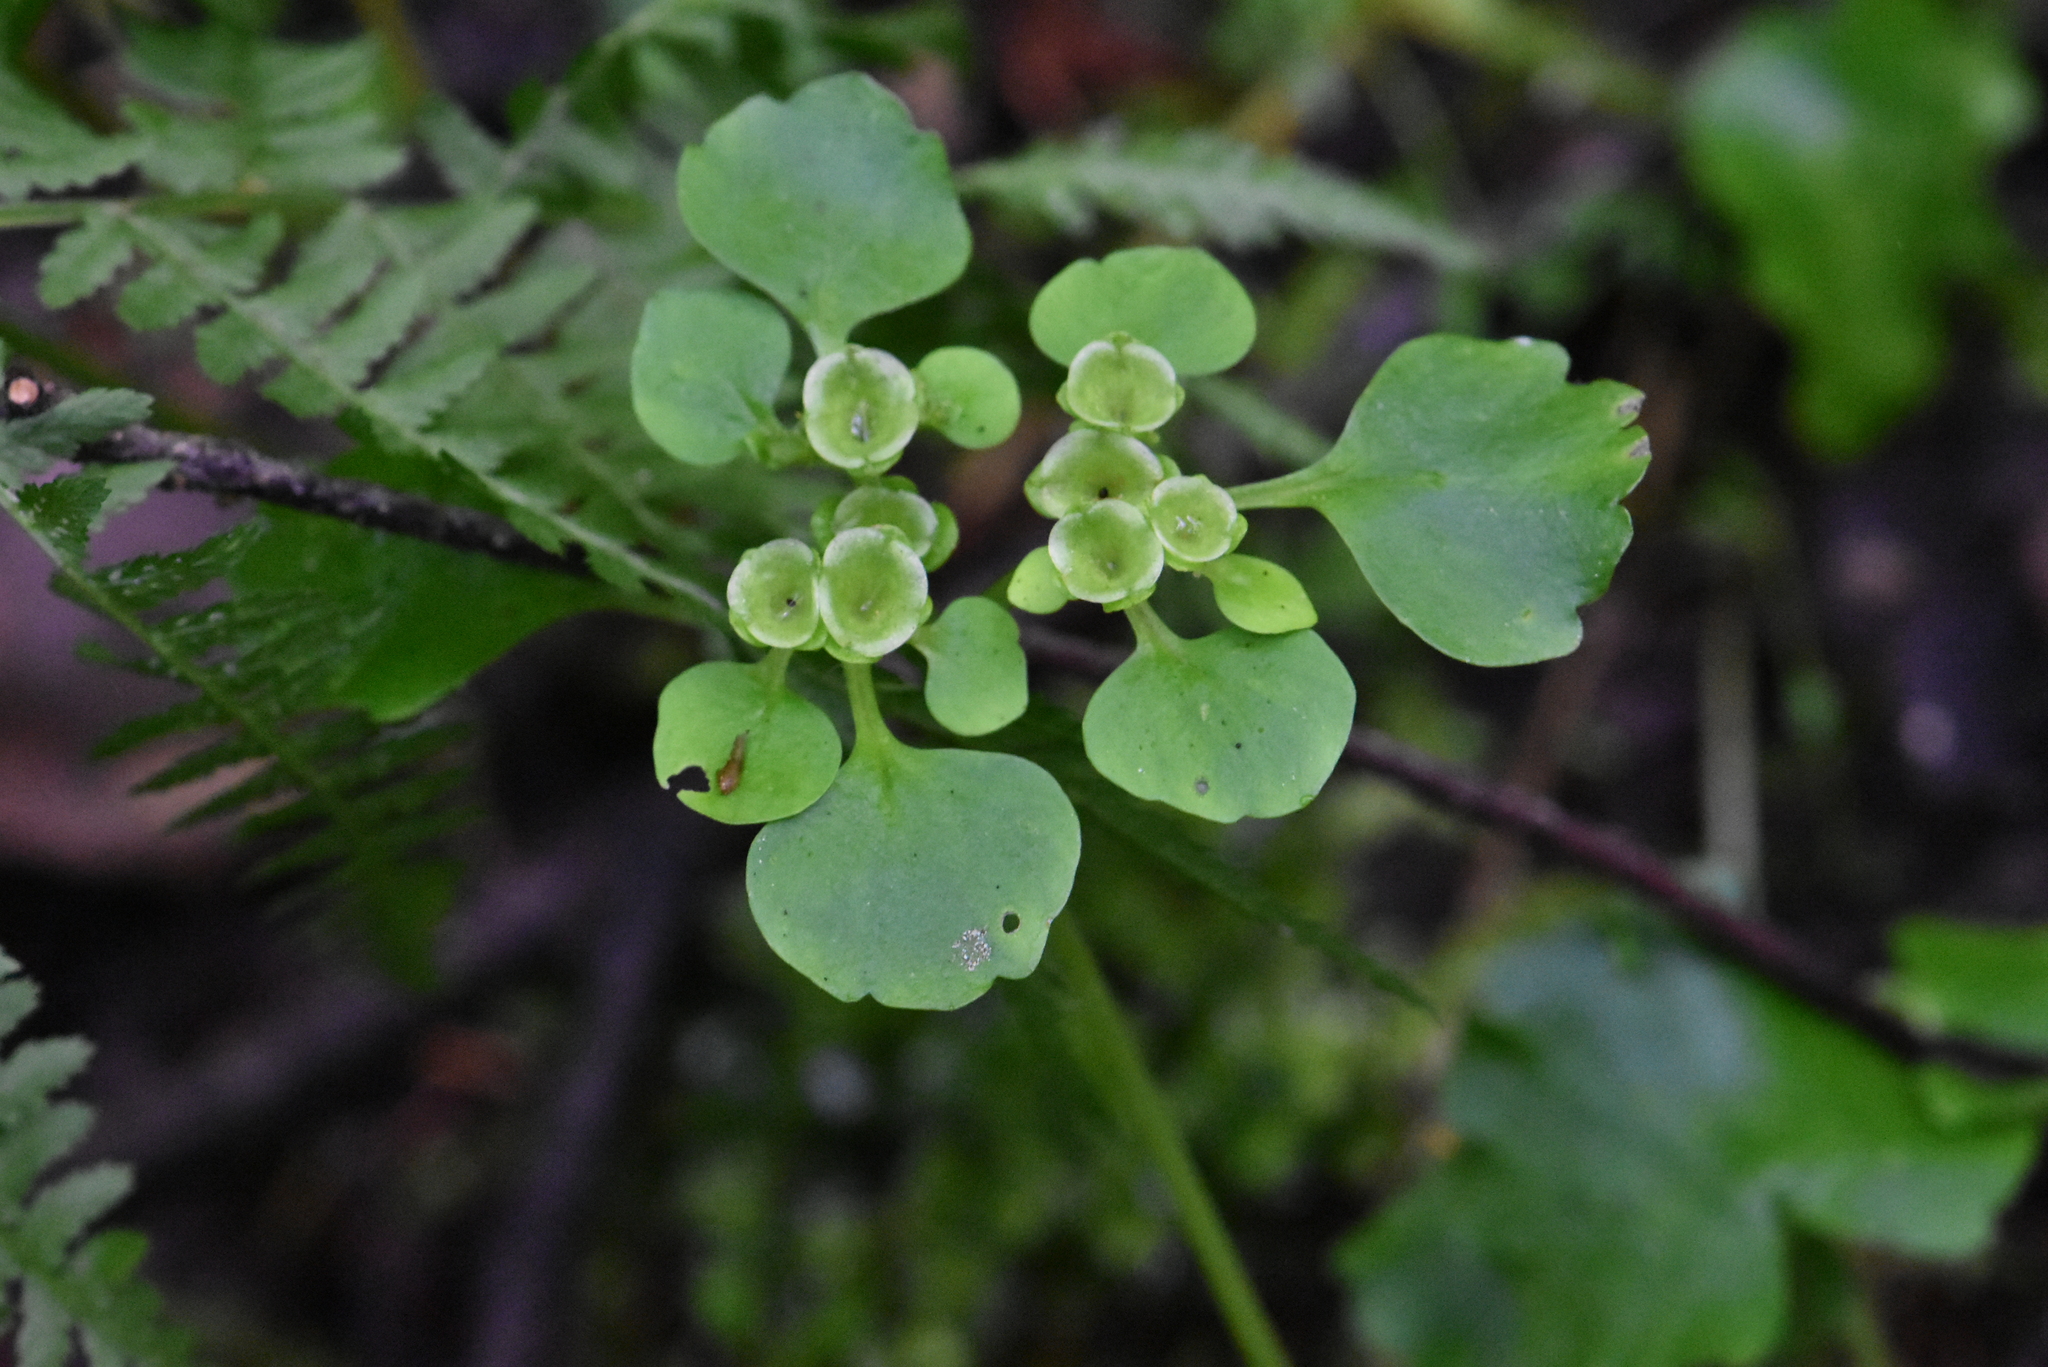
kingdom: Plantae
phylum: Tracheophyta
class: Magnoliopsida
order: Saxifragales
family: Saxifragaceae
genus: Chrysosplenium
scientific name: Chrysosplenium alternifolium
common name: Alternate-leaved golden-saxifrage
